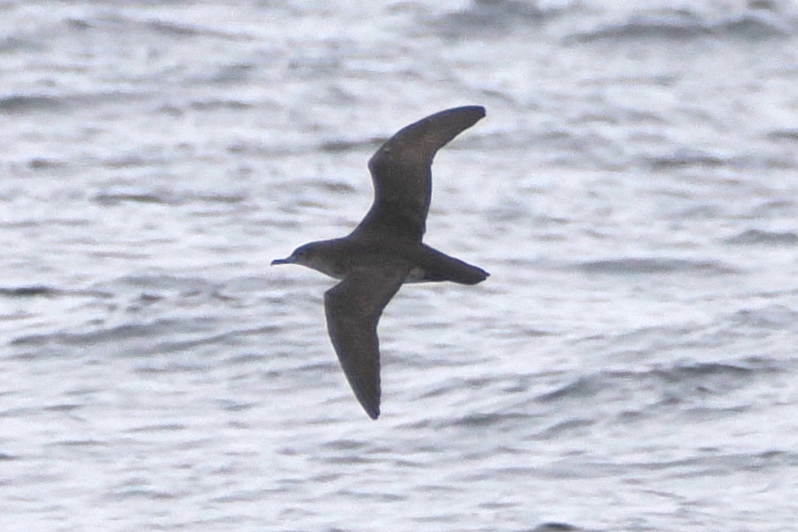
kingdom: Animalia
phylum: Chordata
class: Aves
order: Procellariiformes
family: Procellariidae
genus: Puffinus
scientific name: Puffinus opisthomelas
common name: Black-vented shearwater
